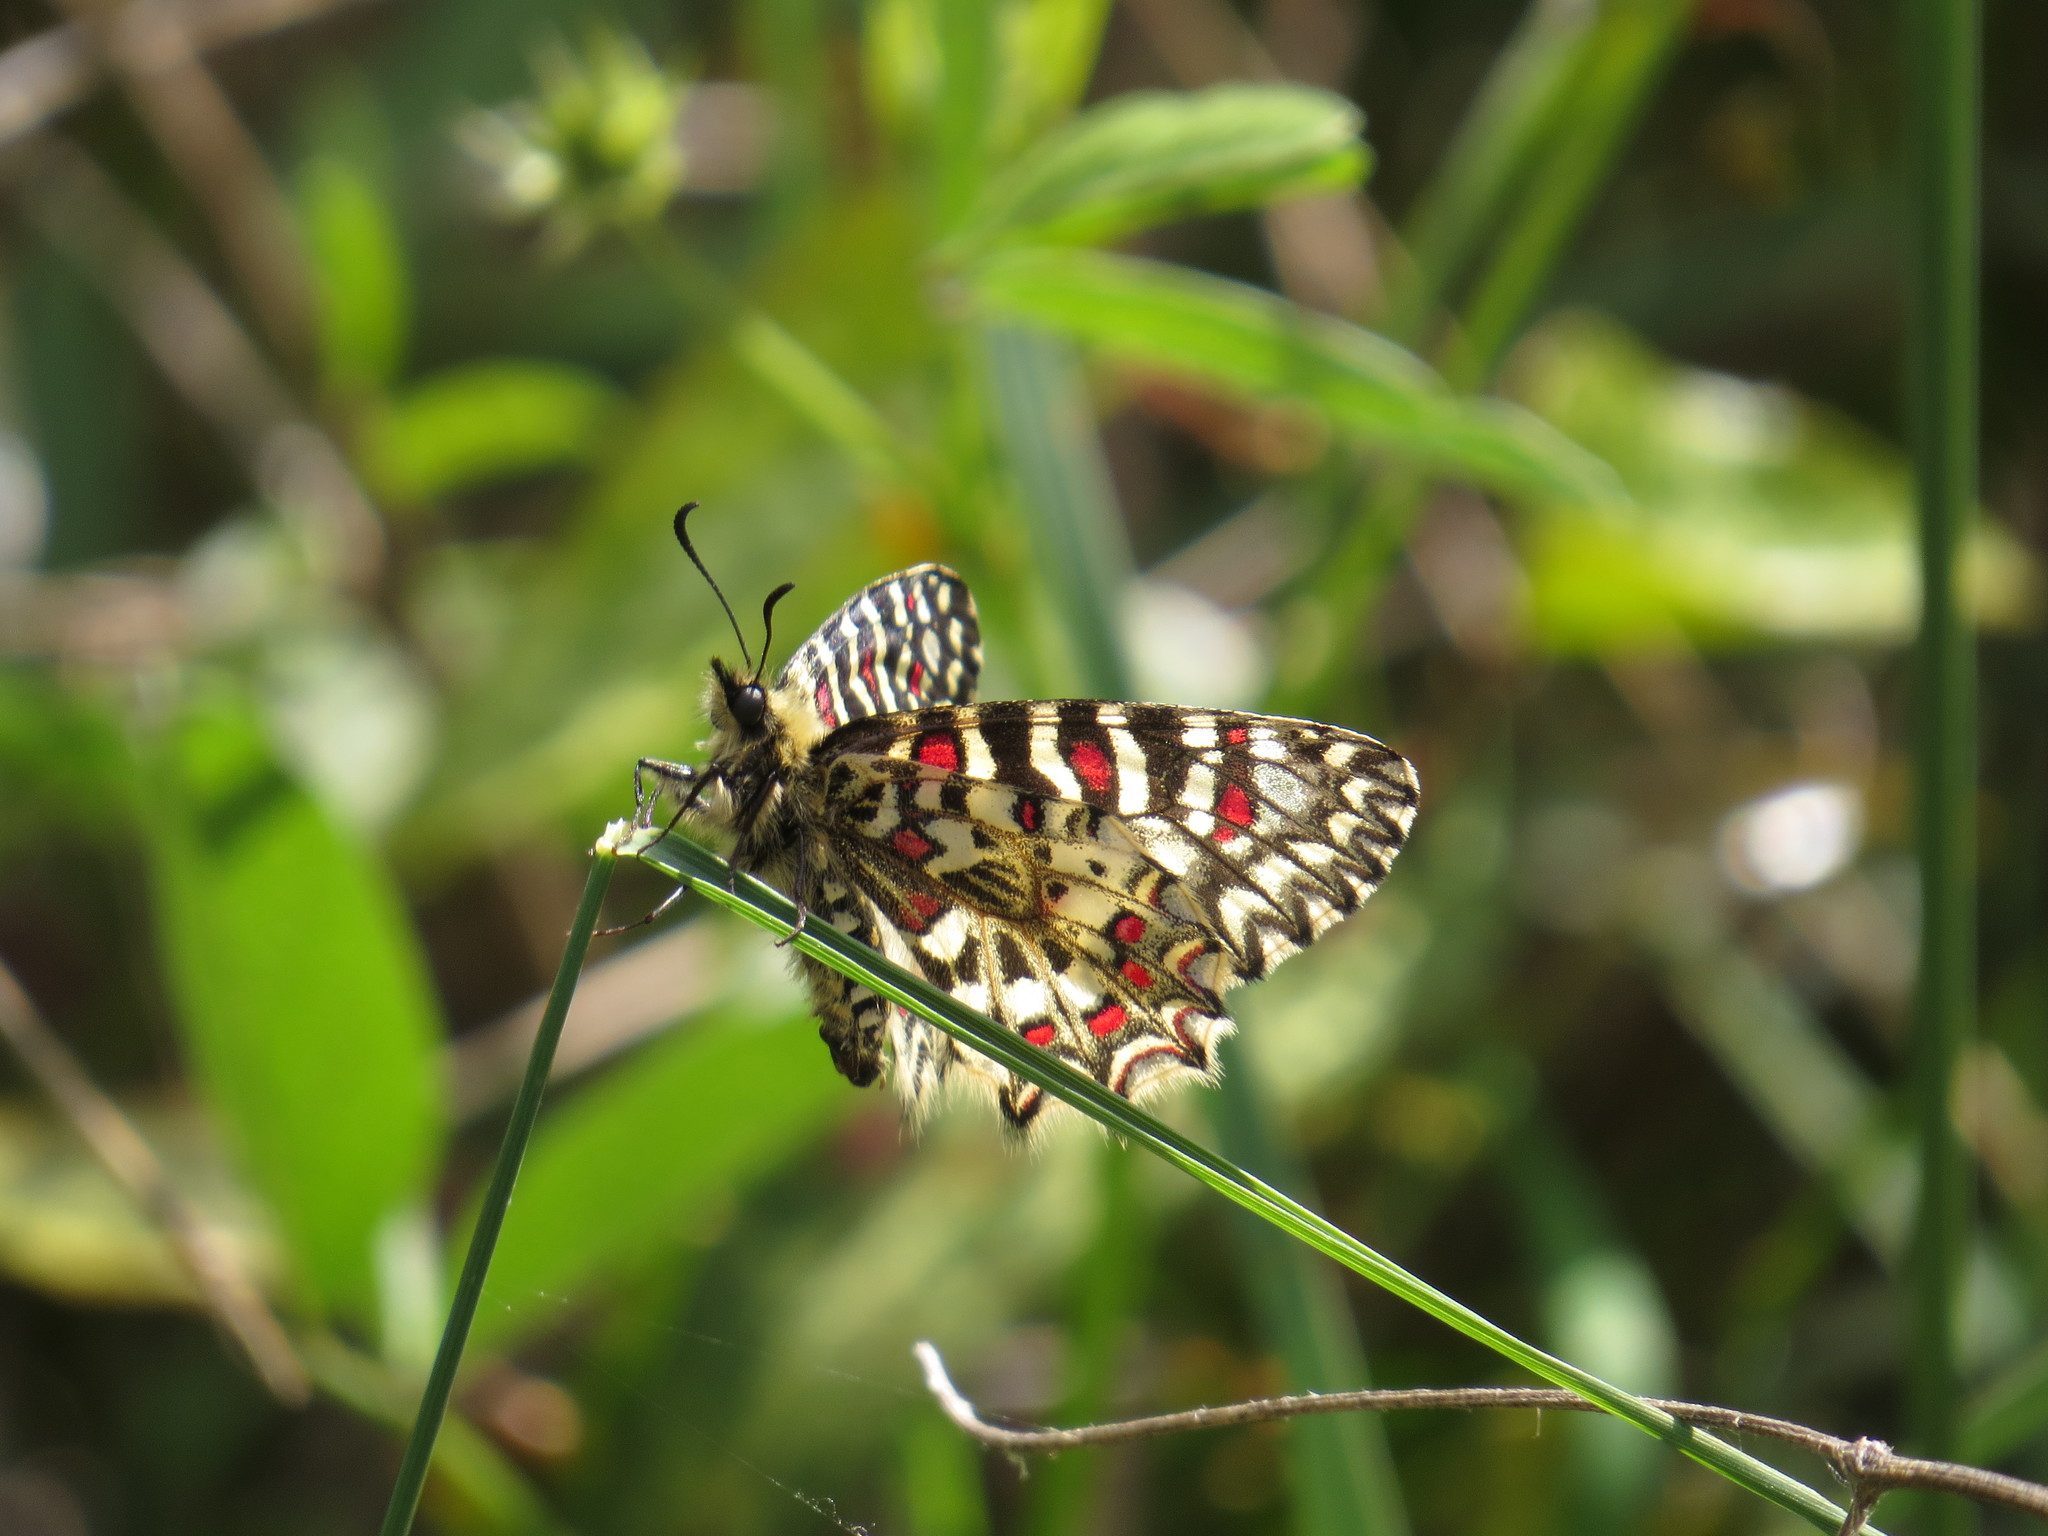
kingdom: Animalia
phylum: Arthropoda
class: Insecta
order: Lepidoptera
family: Papilionidae
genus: Zerynthia
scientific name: Zerynthia rumina
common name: Spanish festoon
